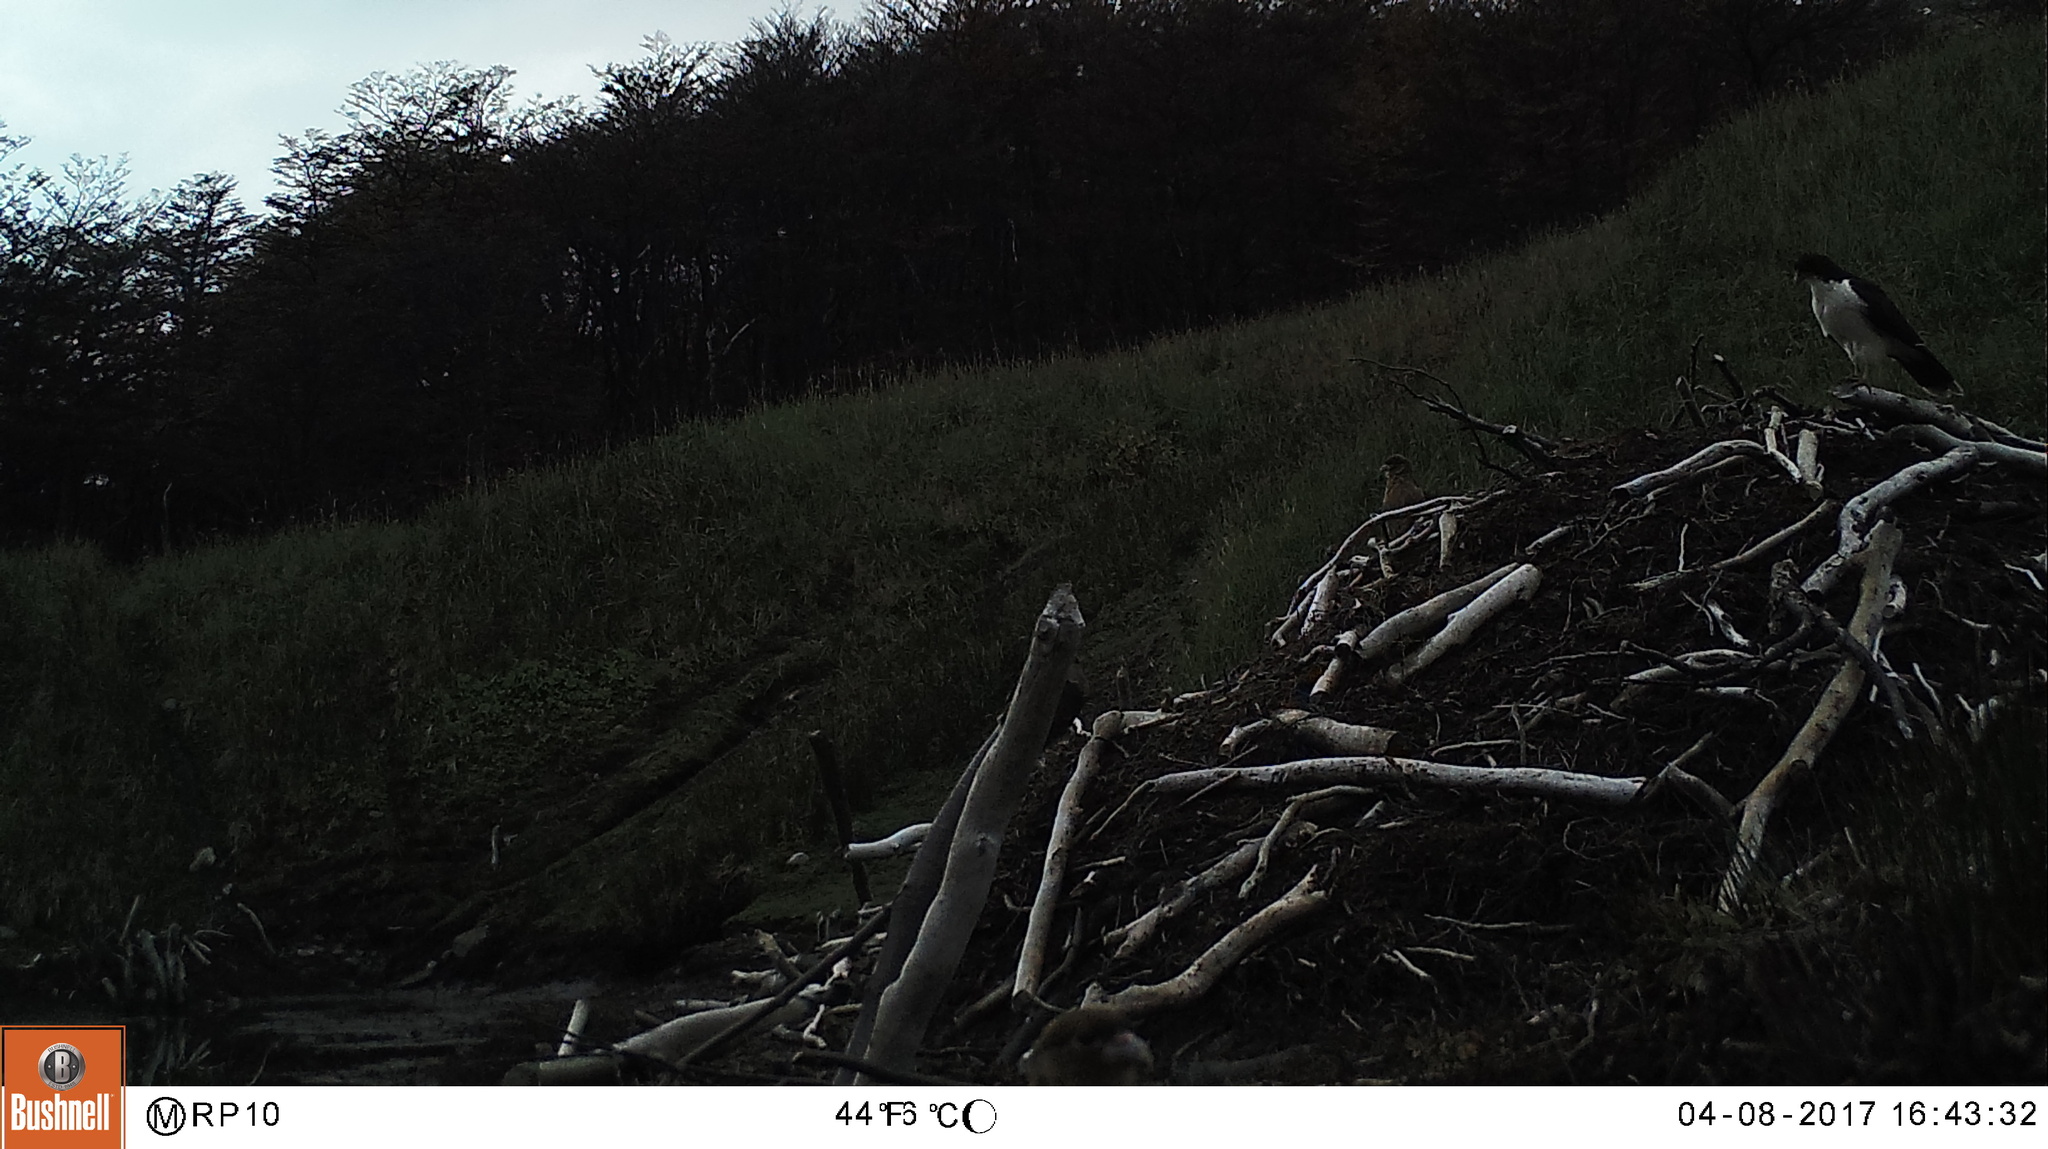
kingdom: Animalia
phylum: Chordata
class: Aves
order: Falconiformes
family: Falconidae
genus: Daptrius
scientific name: Daptrius
